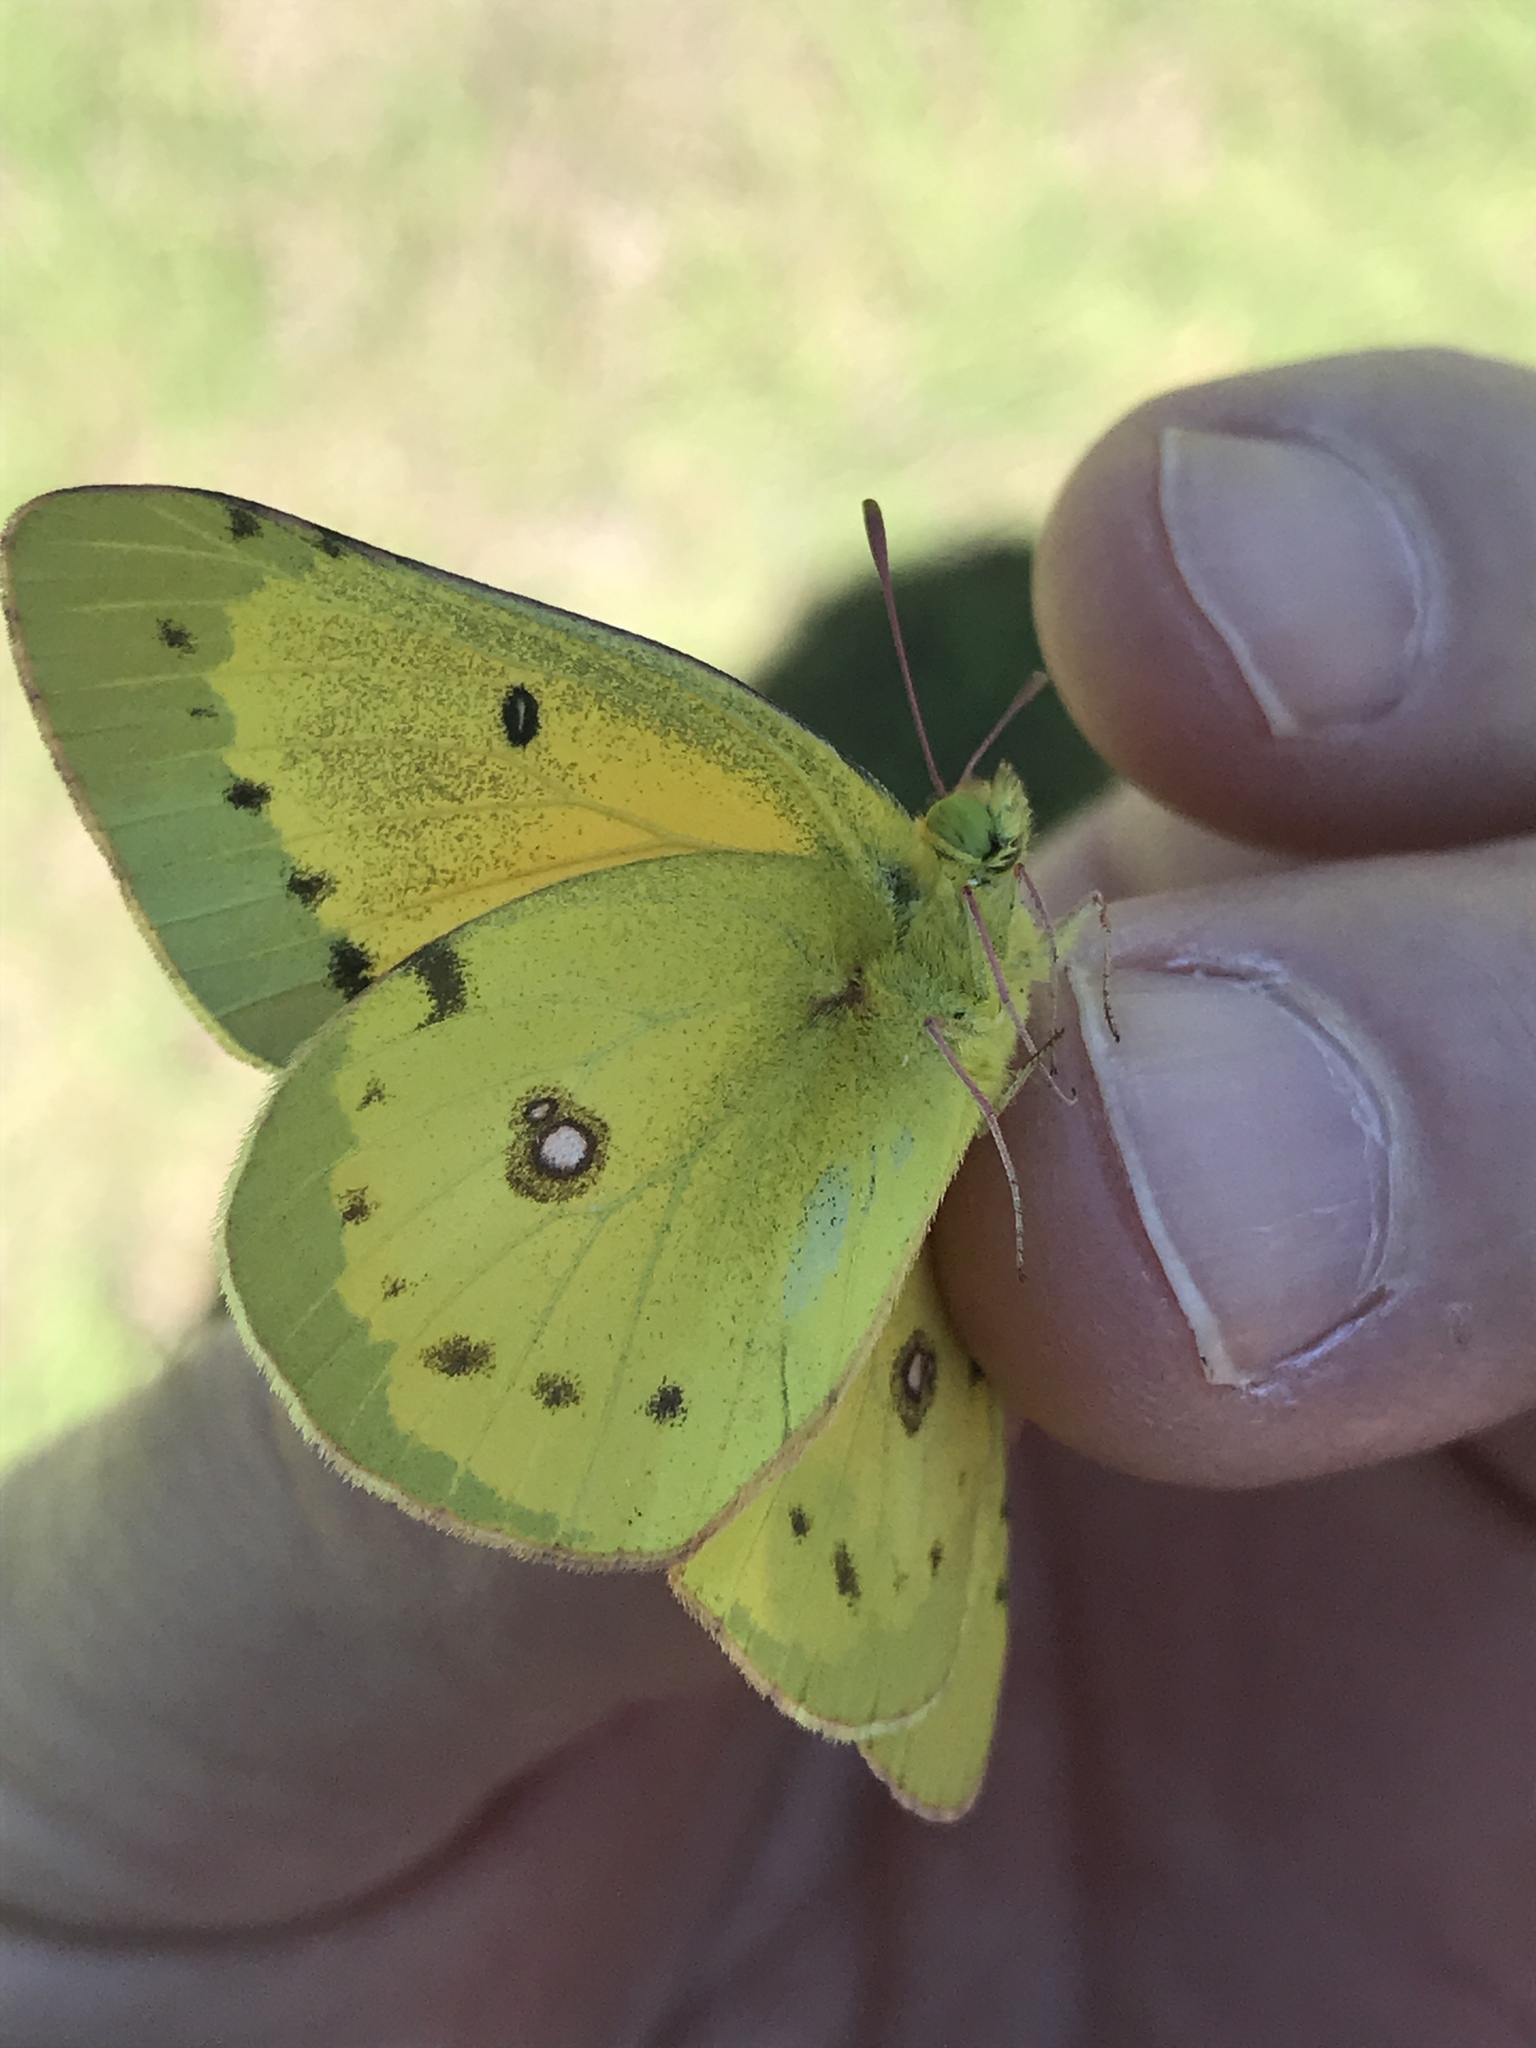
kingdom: Animalia
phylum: Arthropoda
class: Insecta
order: Lepidoptera
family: Pieridae
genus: Colias
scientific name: Colias eurytheme
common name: Alfalfa butterfly
